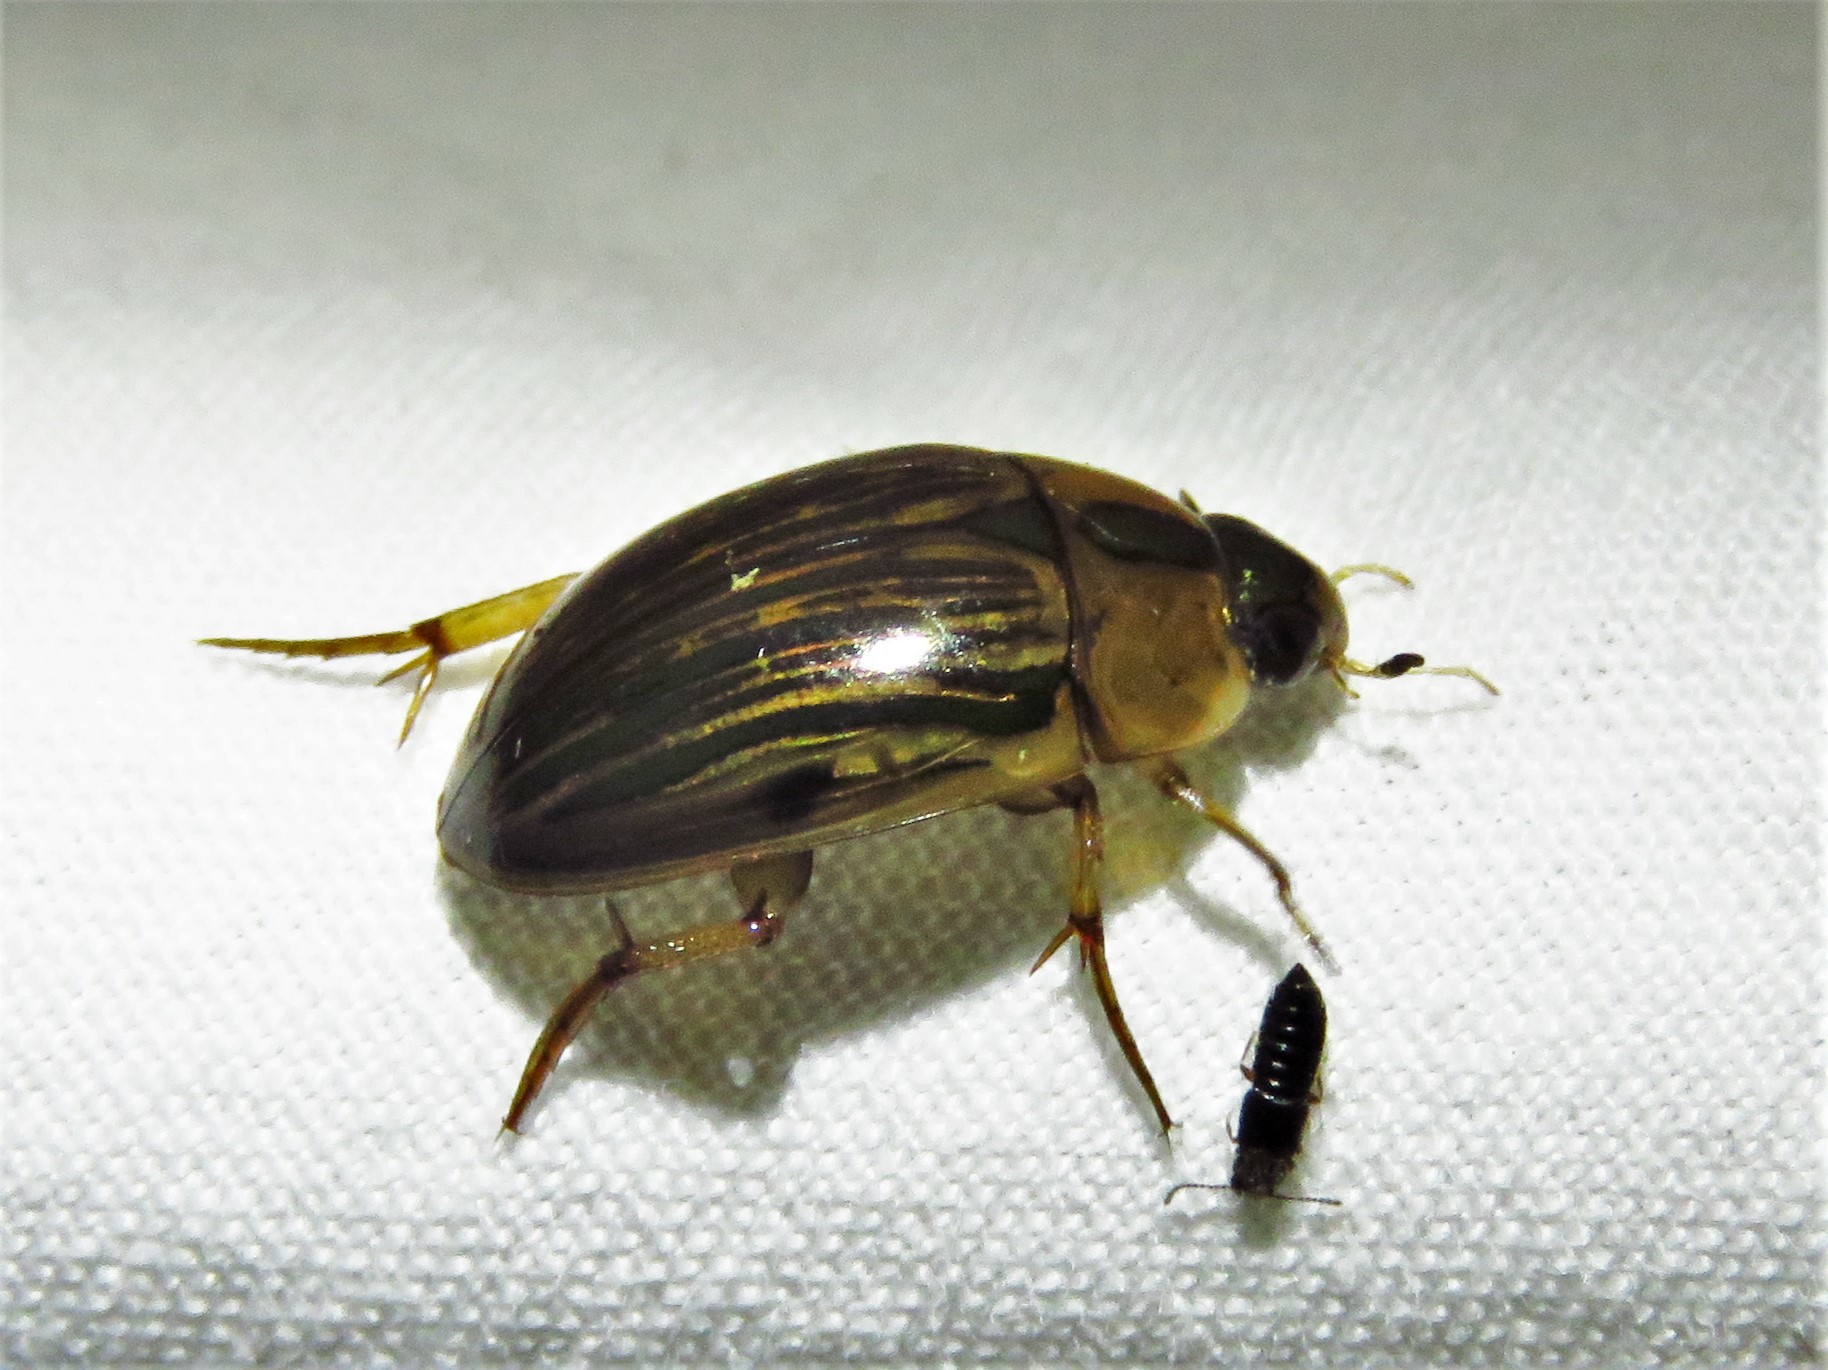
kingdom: Animalia
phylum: Arthropoda
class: Insecta
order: Coleoptera
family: Hydrophilidae
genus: Tropisternus
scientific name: Tropisternus collaris
